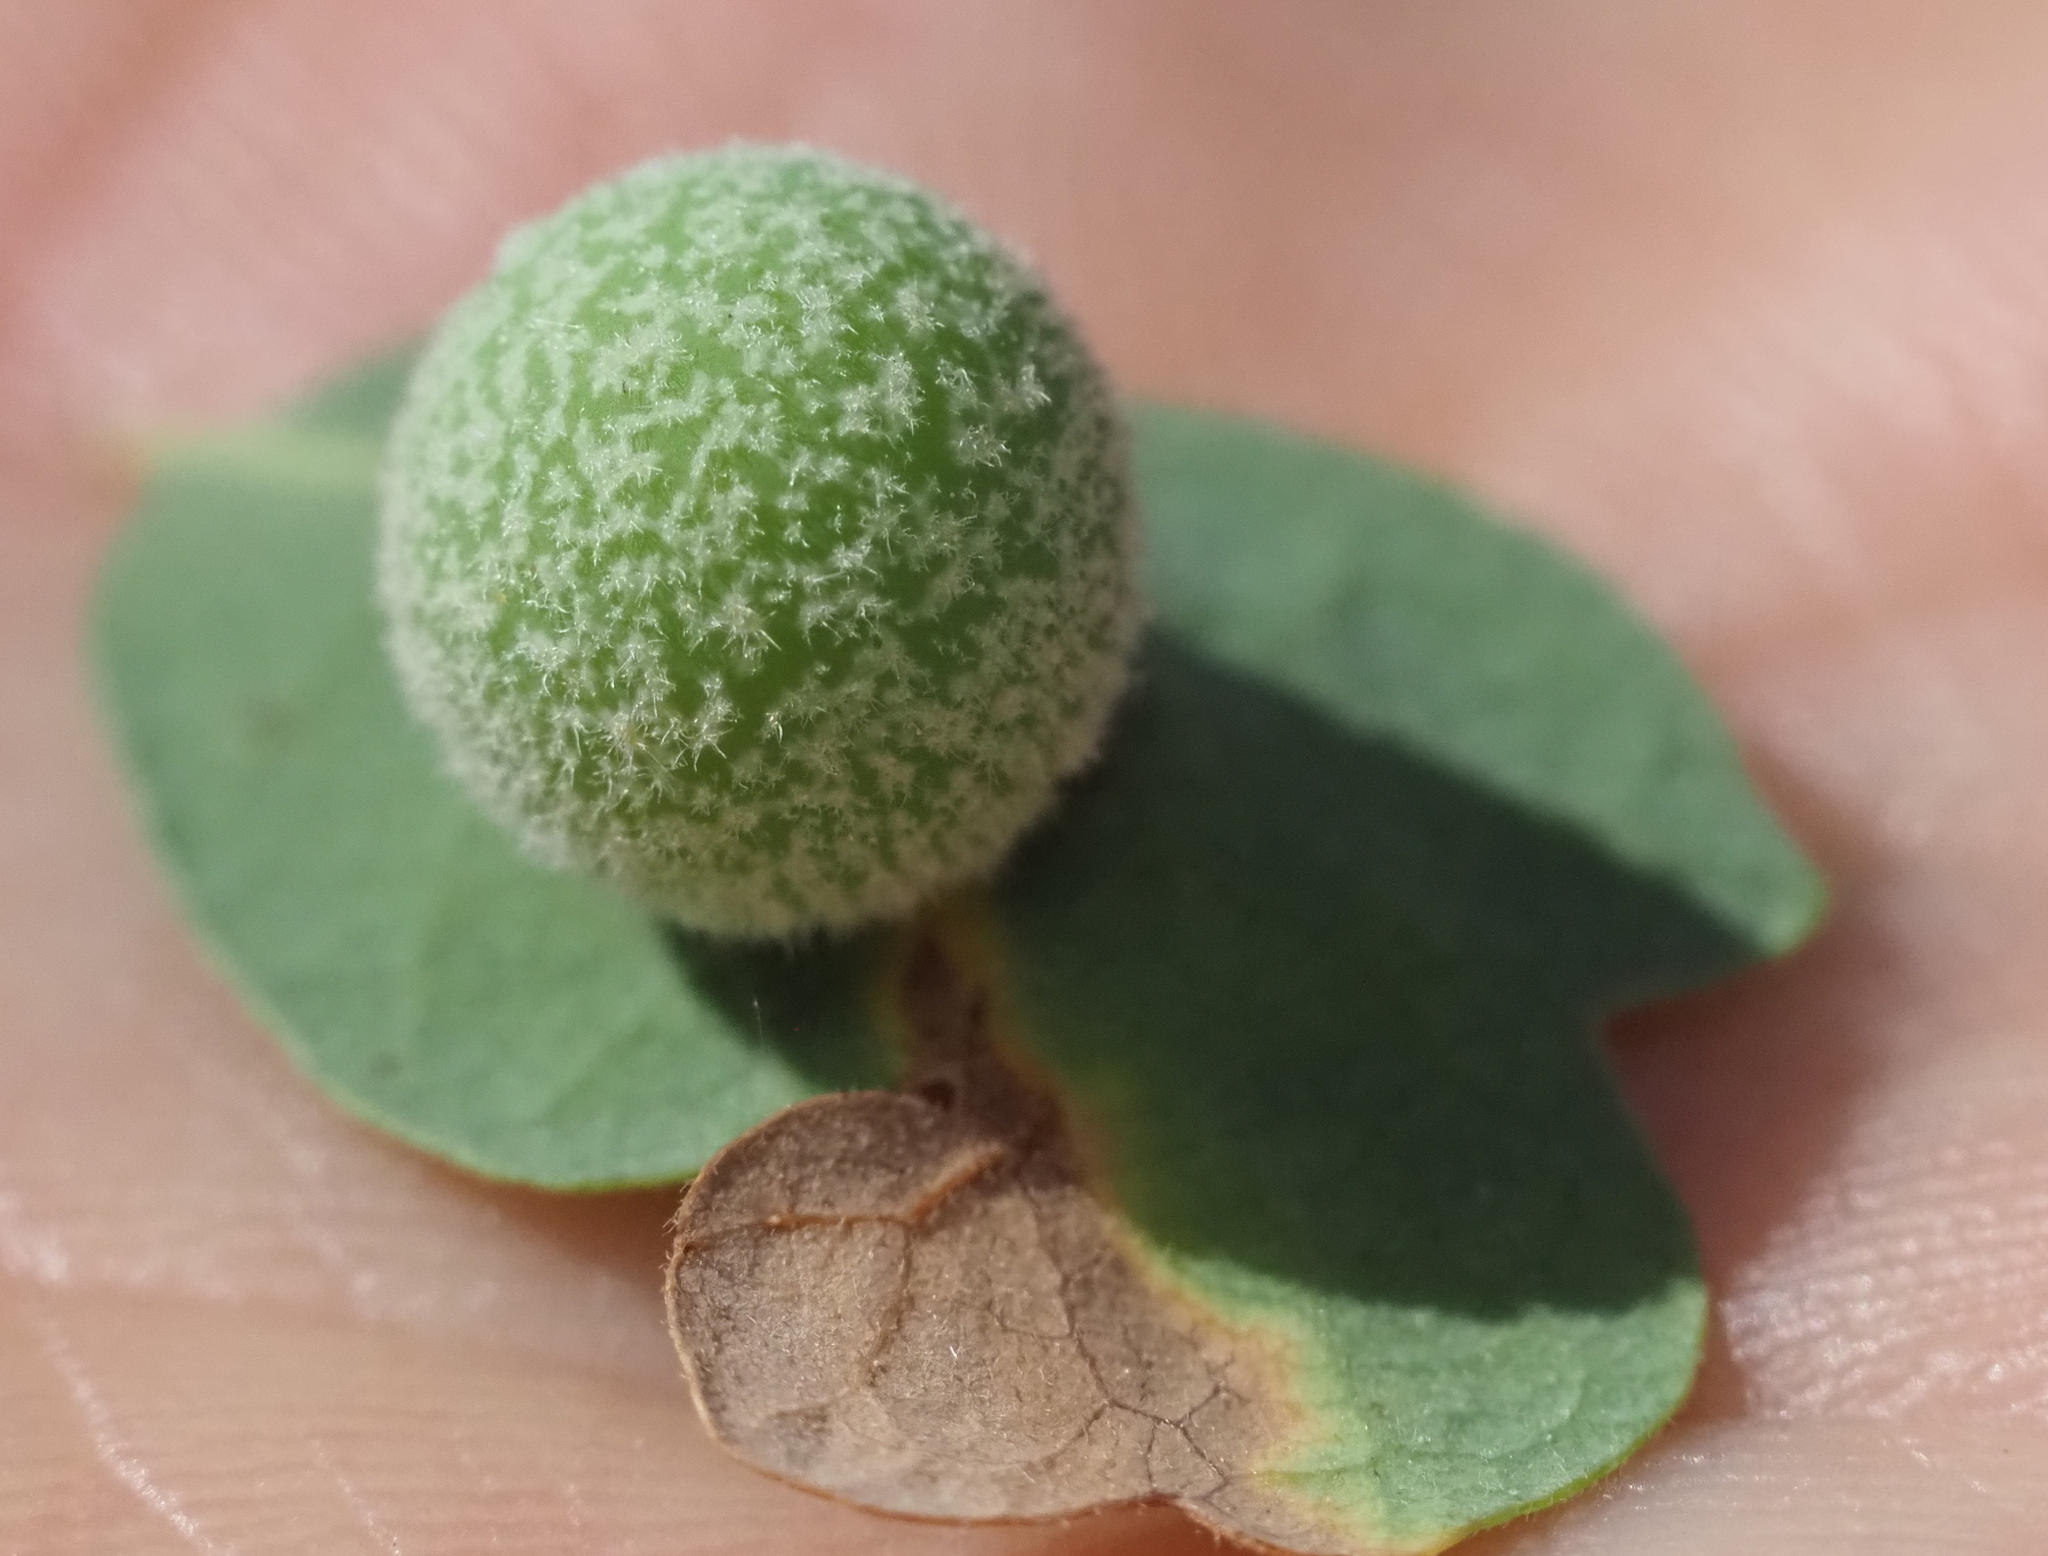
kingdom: Animalia
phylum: Arthropoda
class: Insecta
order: Hymenoptera
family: Cynipidae
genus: Cynips
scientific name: Cynips
